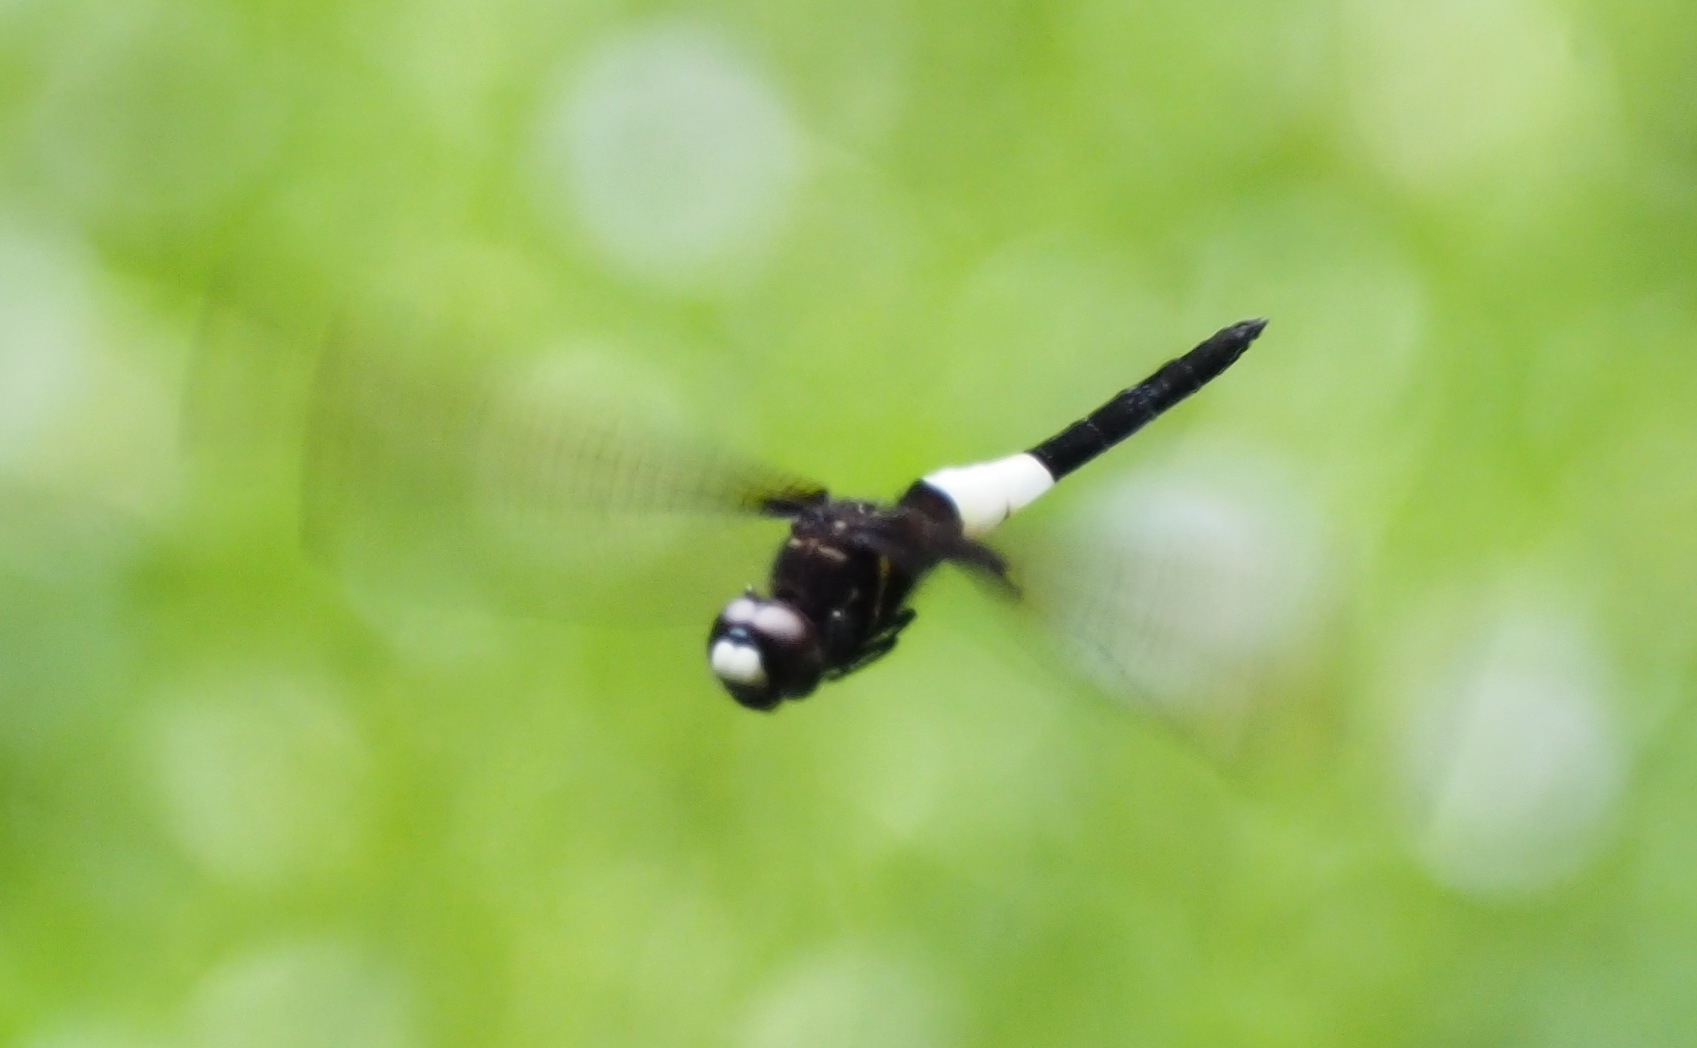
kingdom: Animalia
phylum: Arthropoda
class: Insecta
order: Odonata
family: Libellulidae
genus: Pseudothemis
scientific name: Pseudothemis zonata
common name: Pied skimmer
